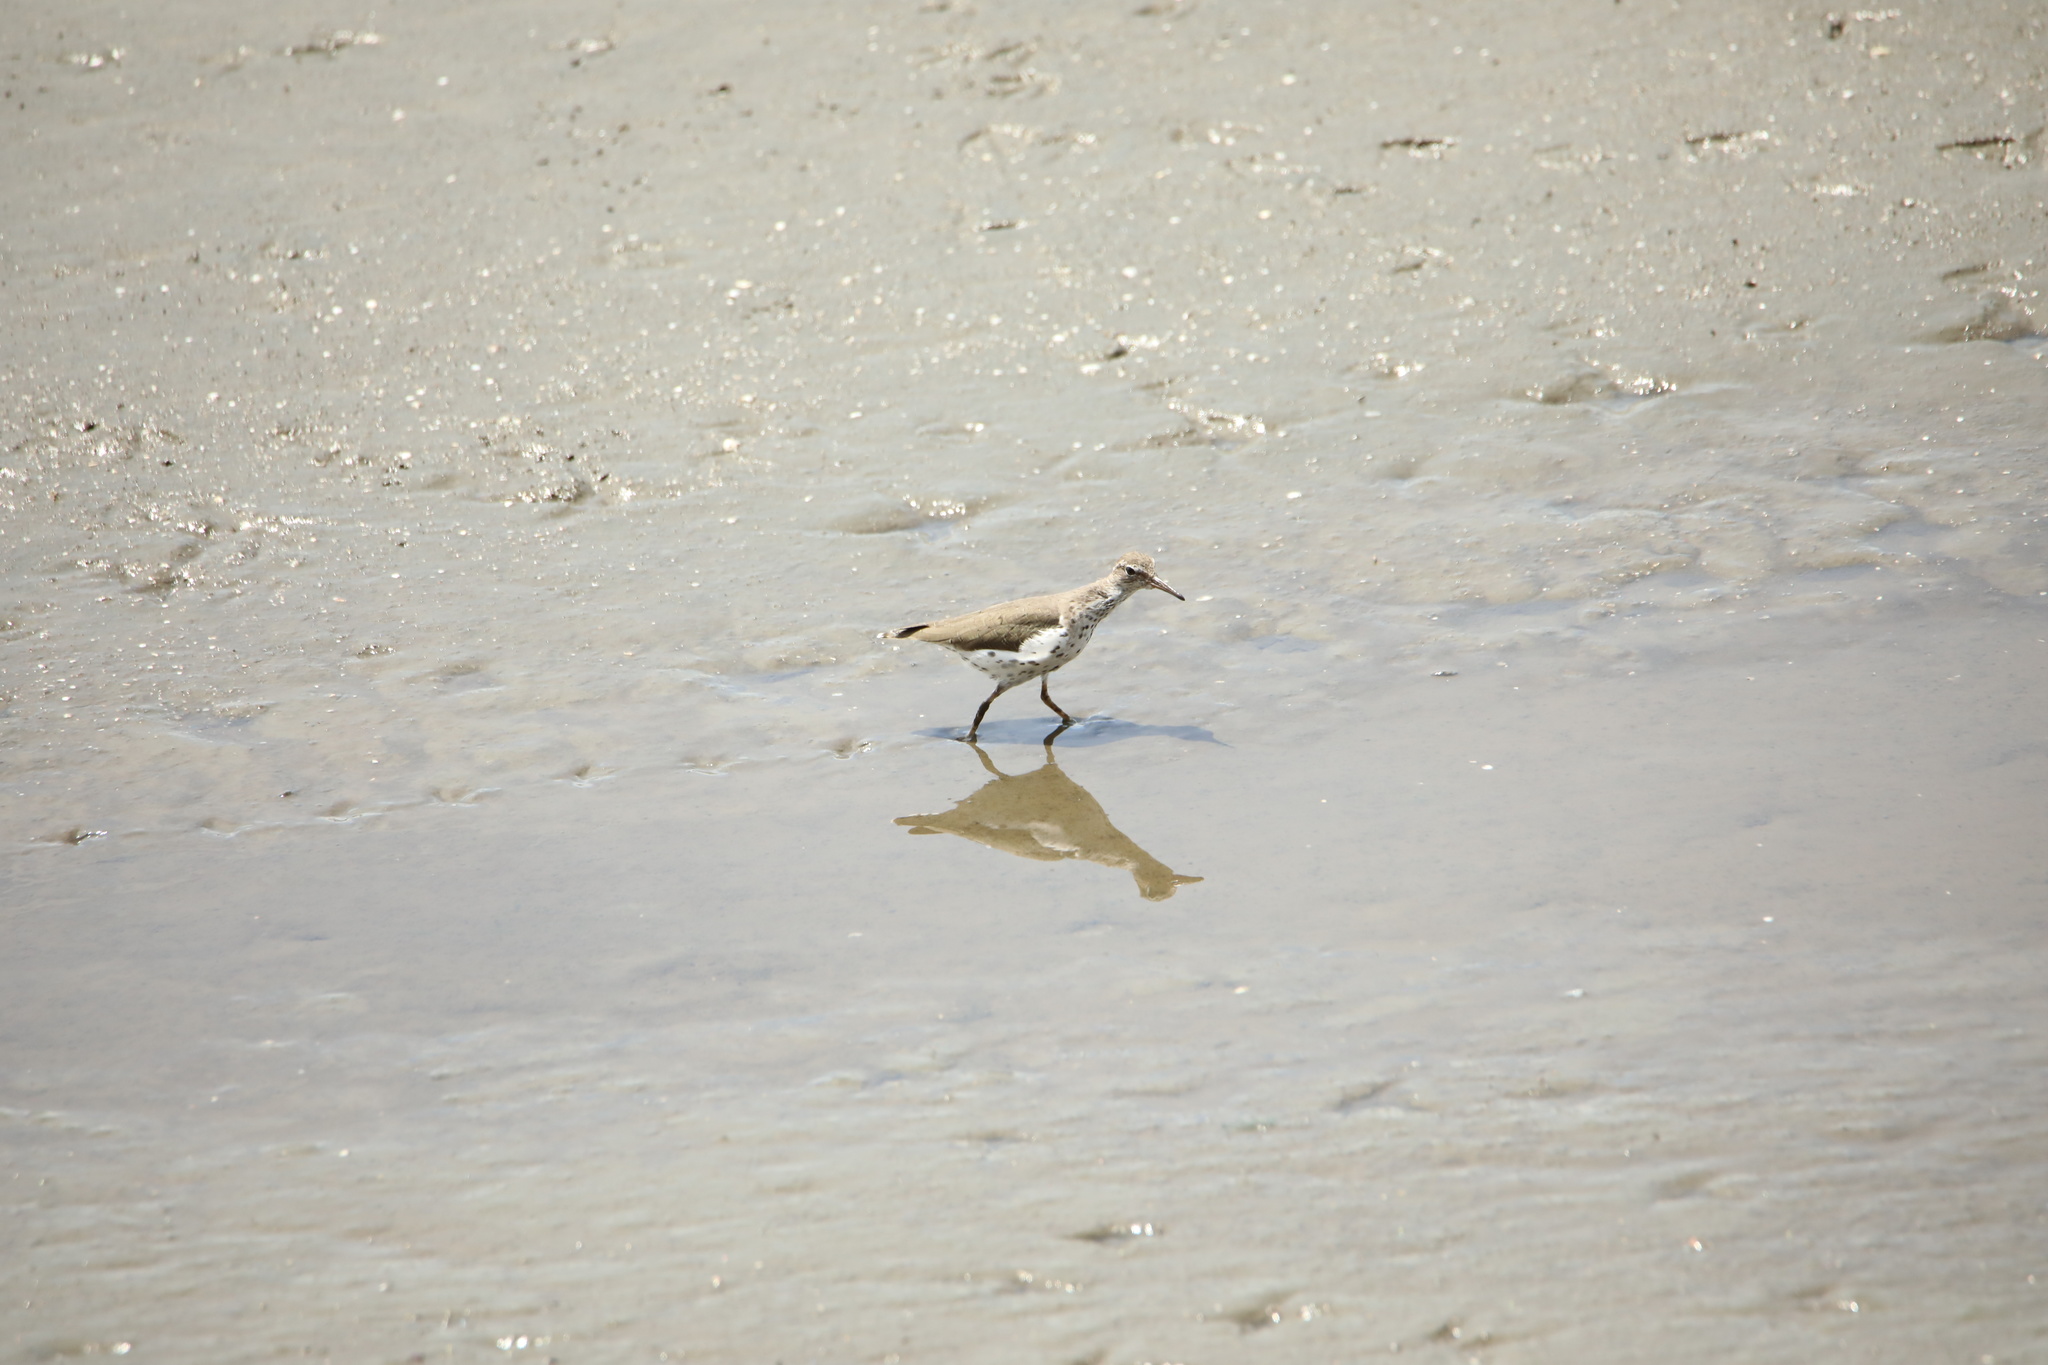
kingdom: Animalia
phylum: Chordata
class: Aves
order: Charadriiformes
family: Scolopacidae
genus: Actitis
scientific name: Actitis macularius
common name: Spotted sandpiper
